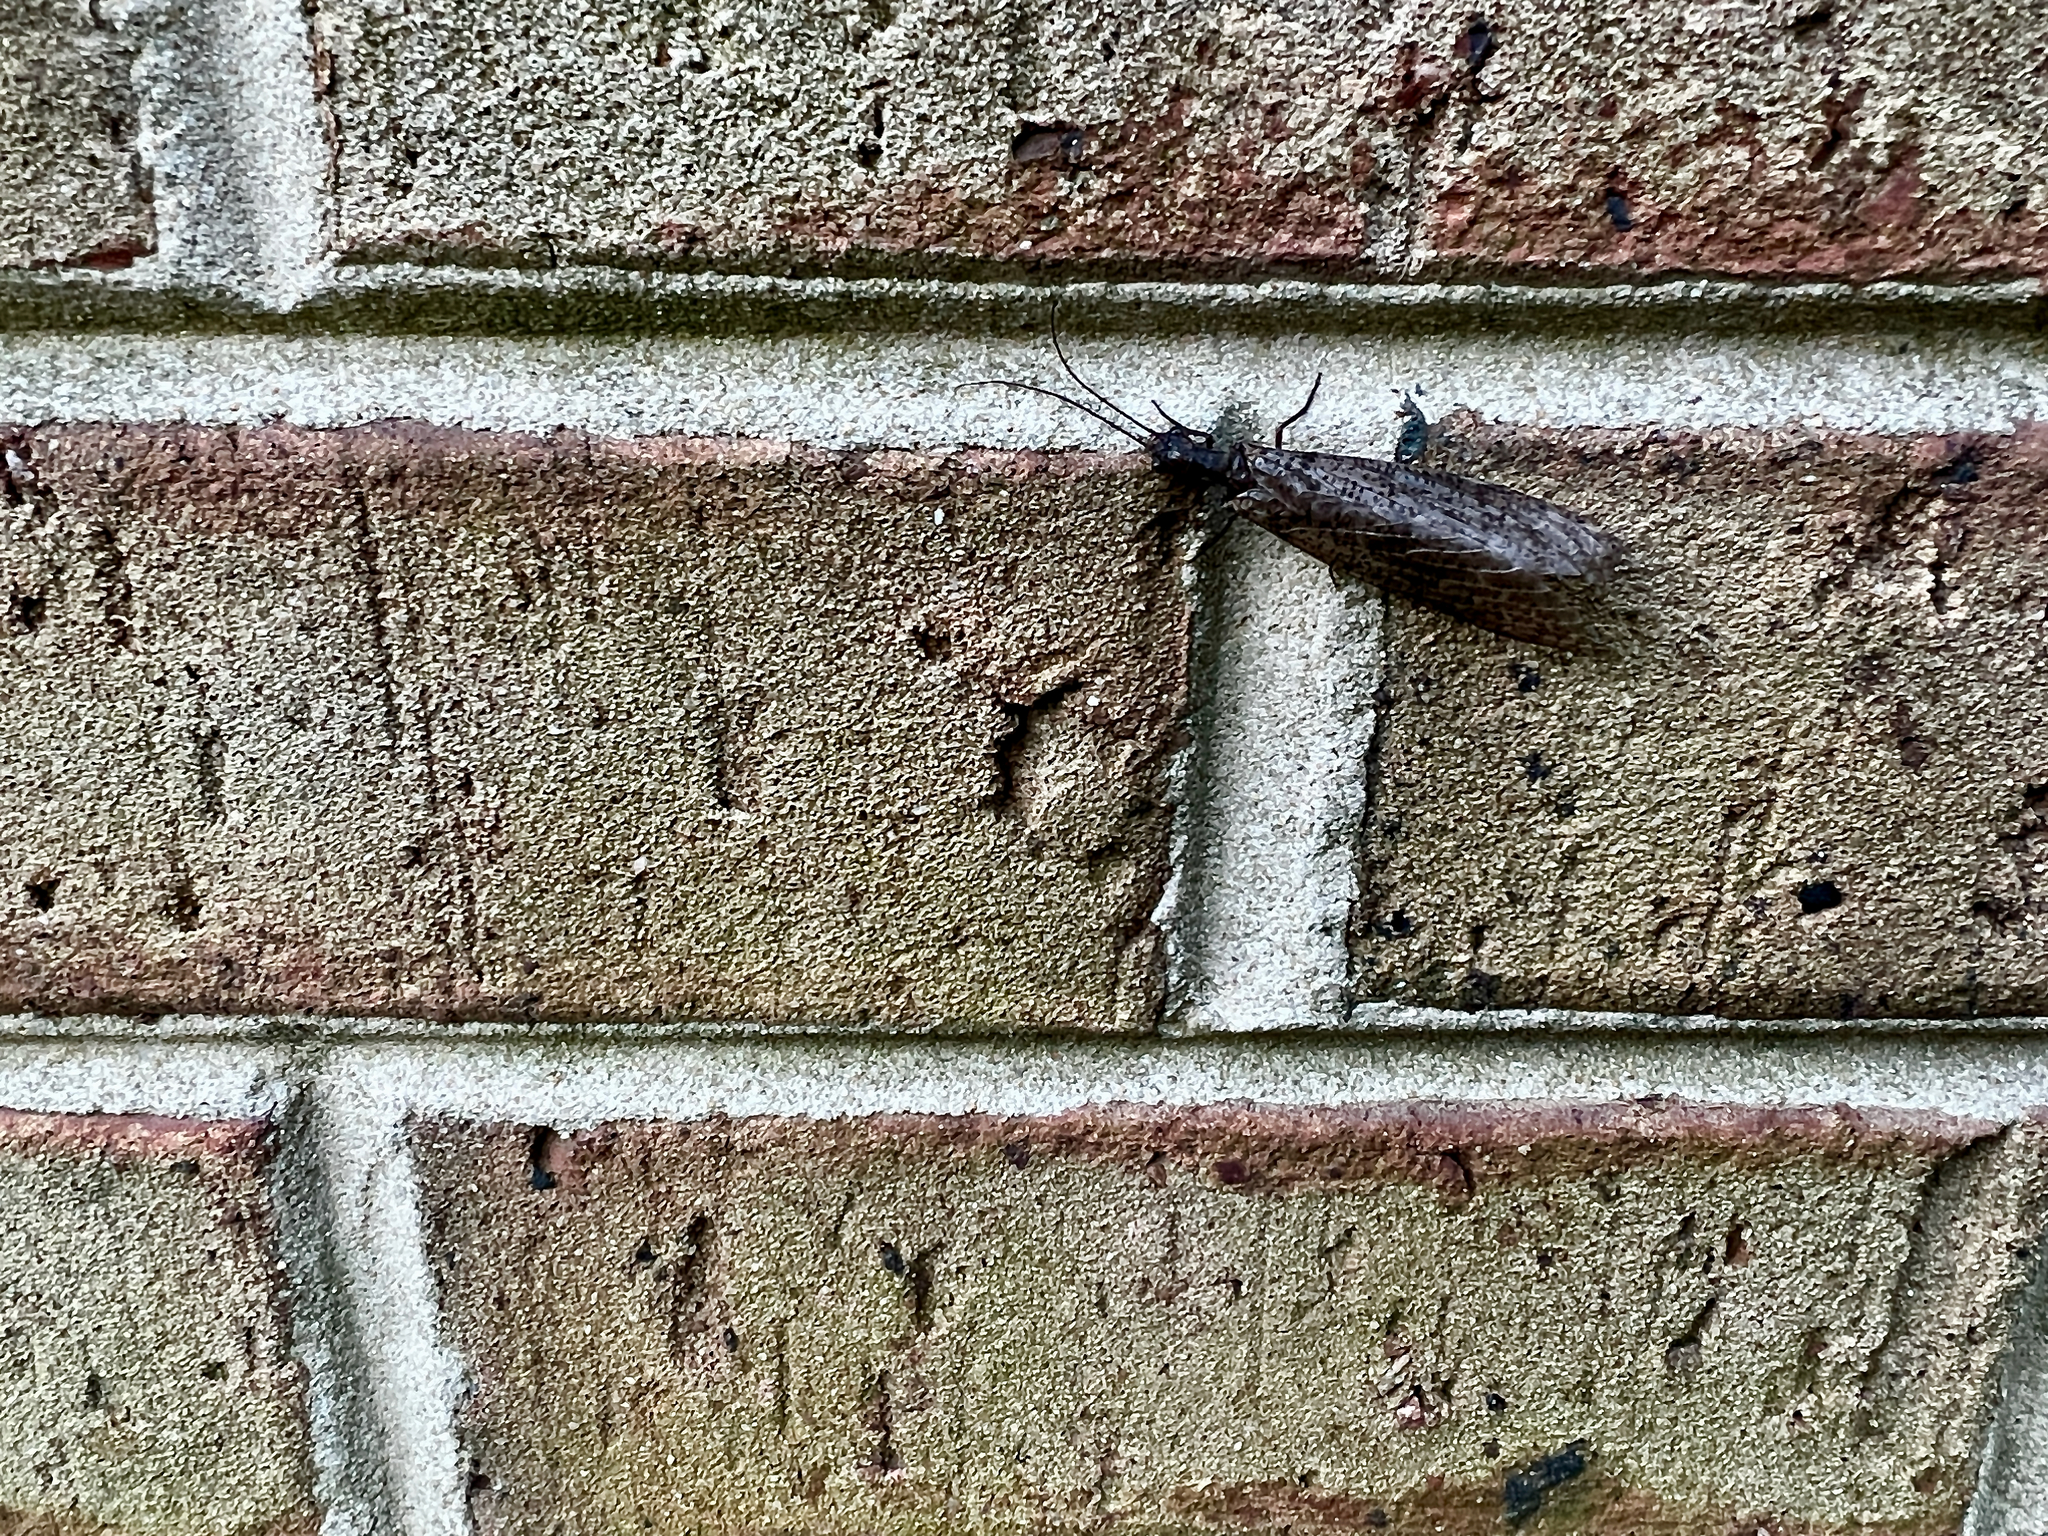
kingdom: Animalia
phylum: Arthropoda
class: Insecta
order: Megaloptera
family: Corydalidae
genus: Neohermes
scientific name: Neohermes concolor
